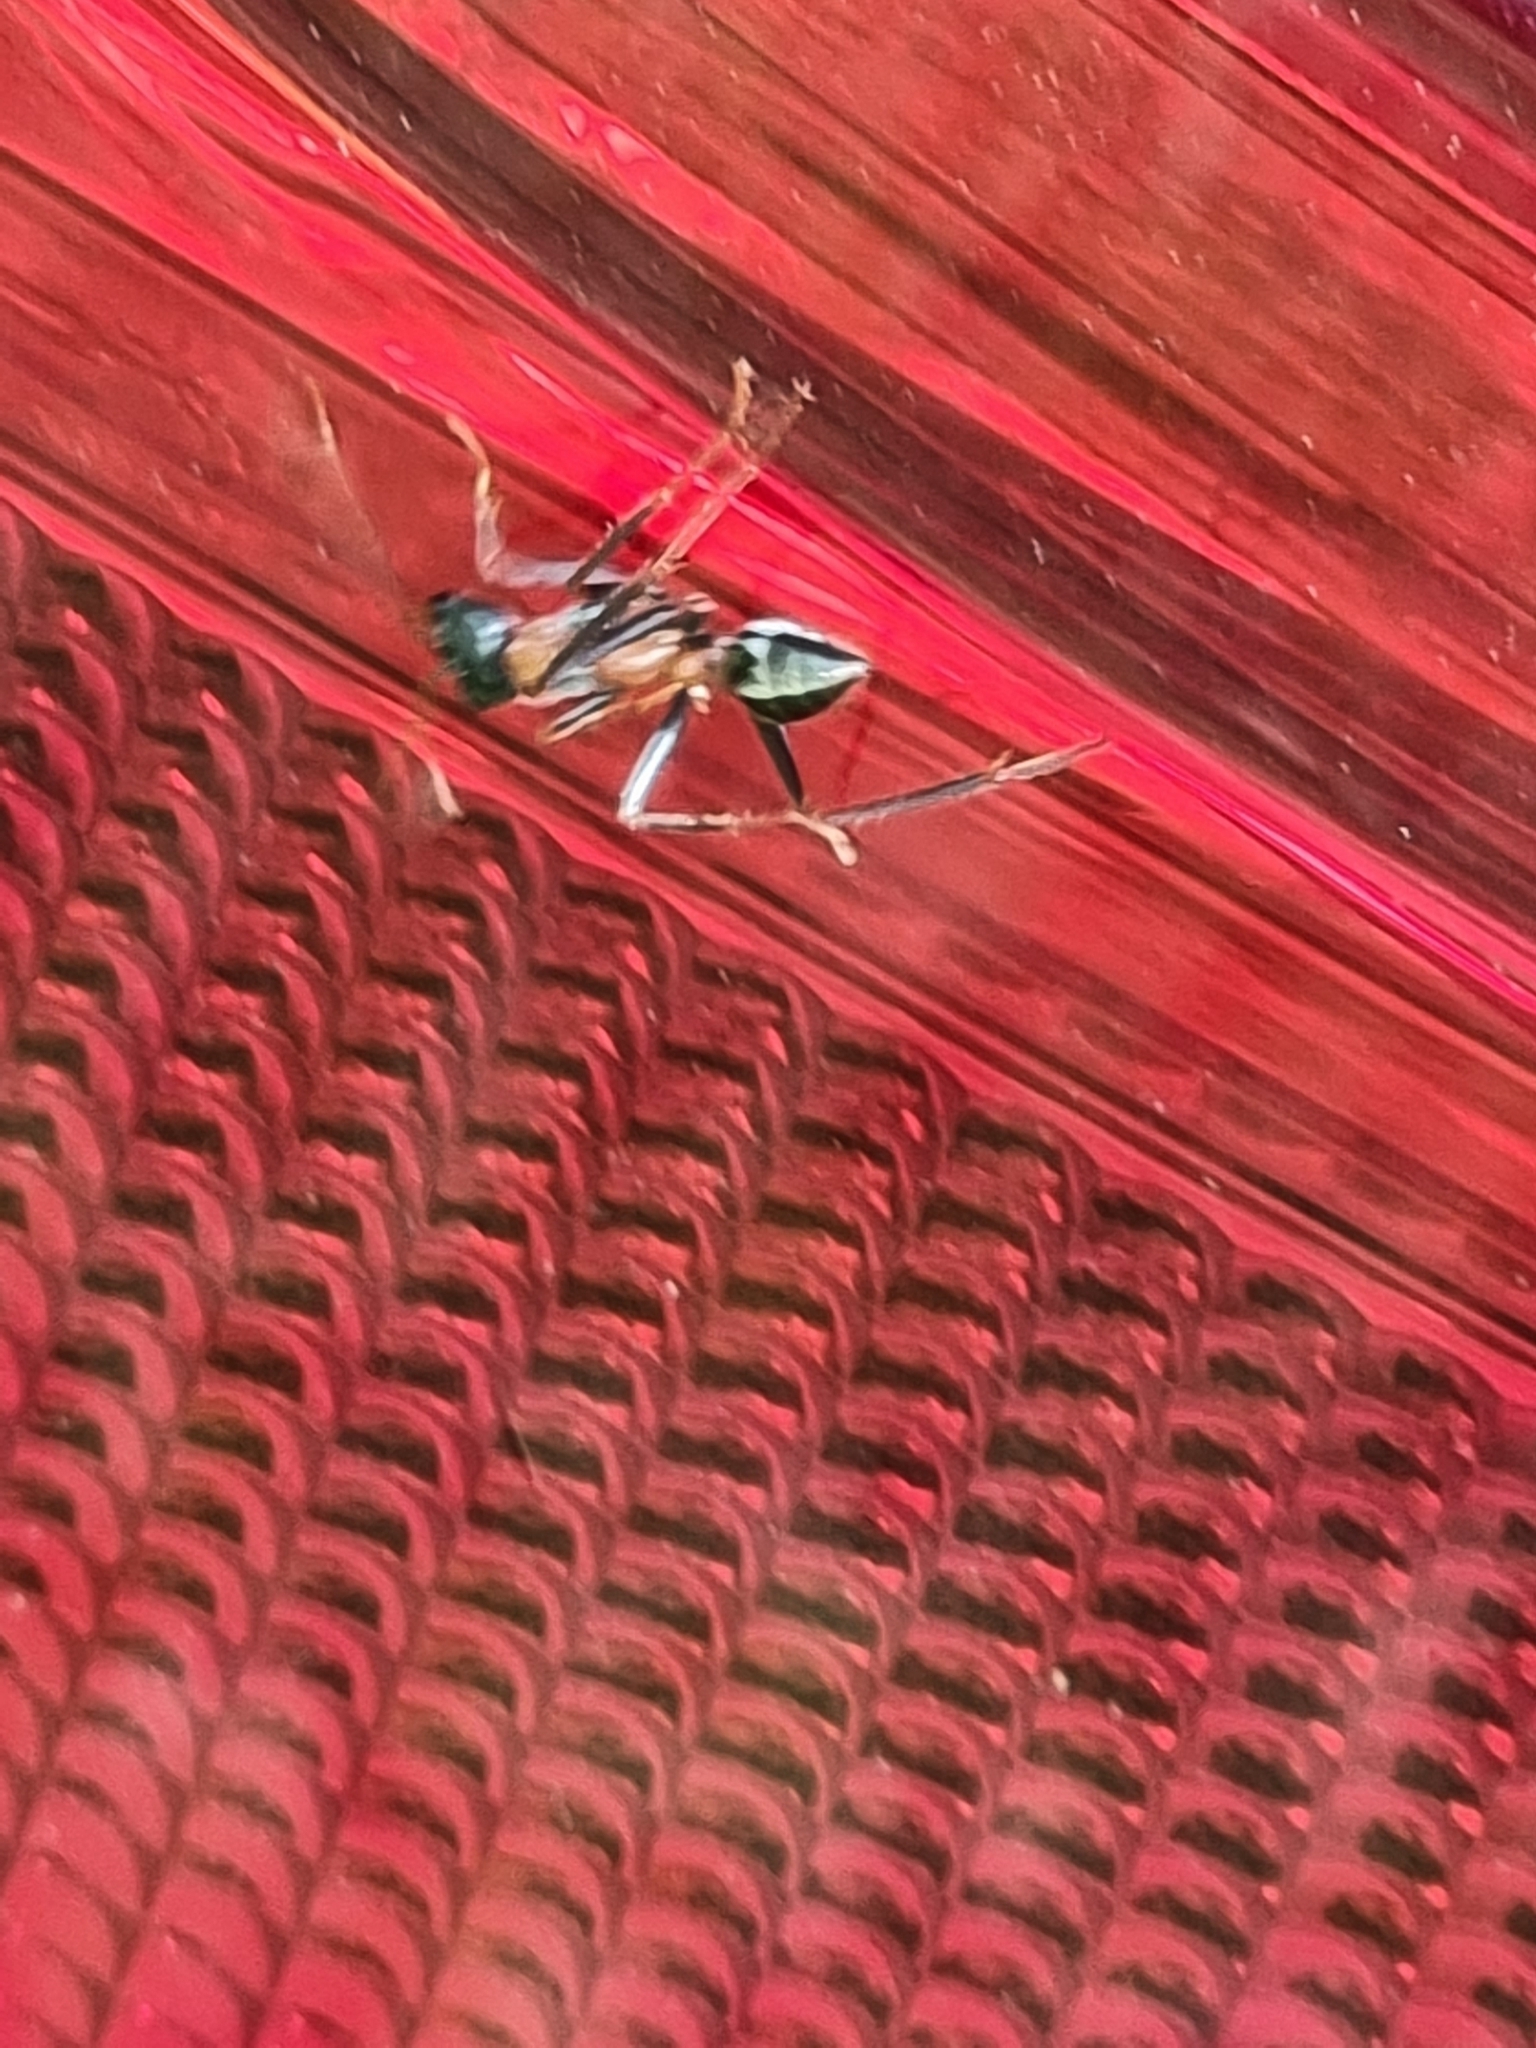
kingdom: Animalia
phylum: Arthropoda
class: Insecta
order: Hymenoptera
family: Formicidae
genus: Myrmecia
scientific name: Myrmecia nigrocincta
